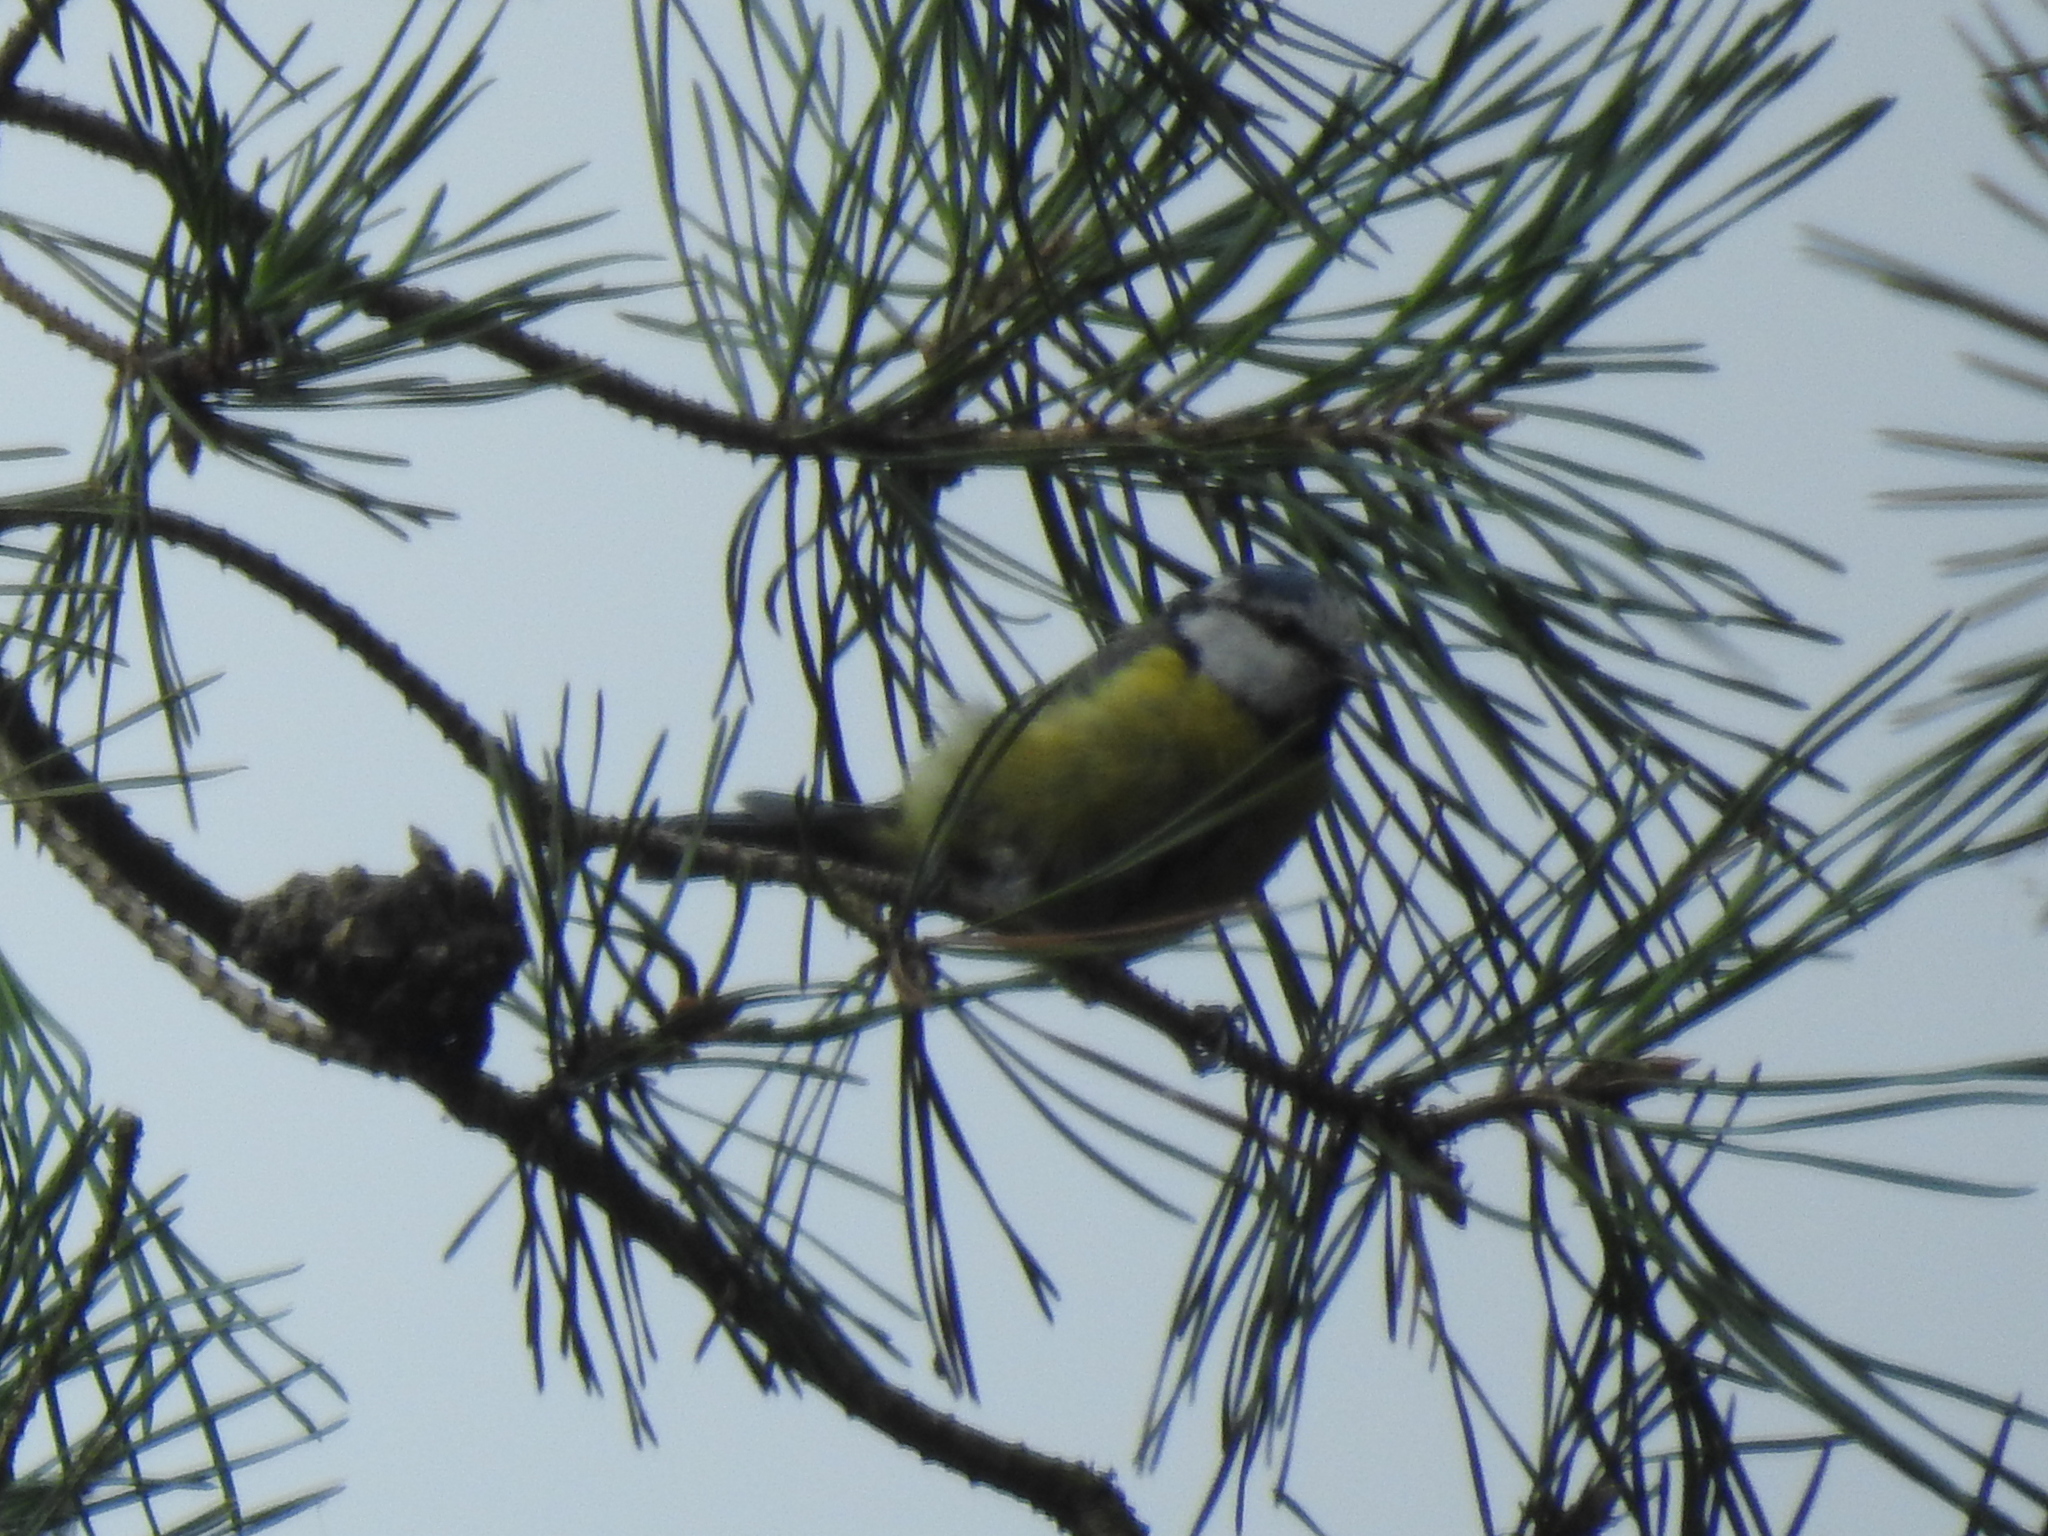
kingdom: Animalia
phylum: Chordata
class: Aves
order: Passeriformes
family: Paridae
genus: Cyanistes
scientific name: Cyanistes caeruleus
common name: Eurasian blue tit
